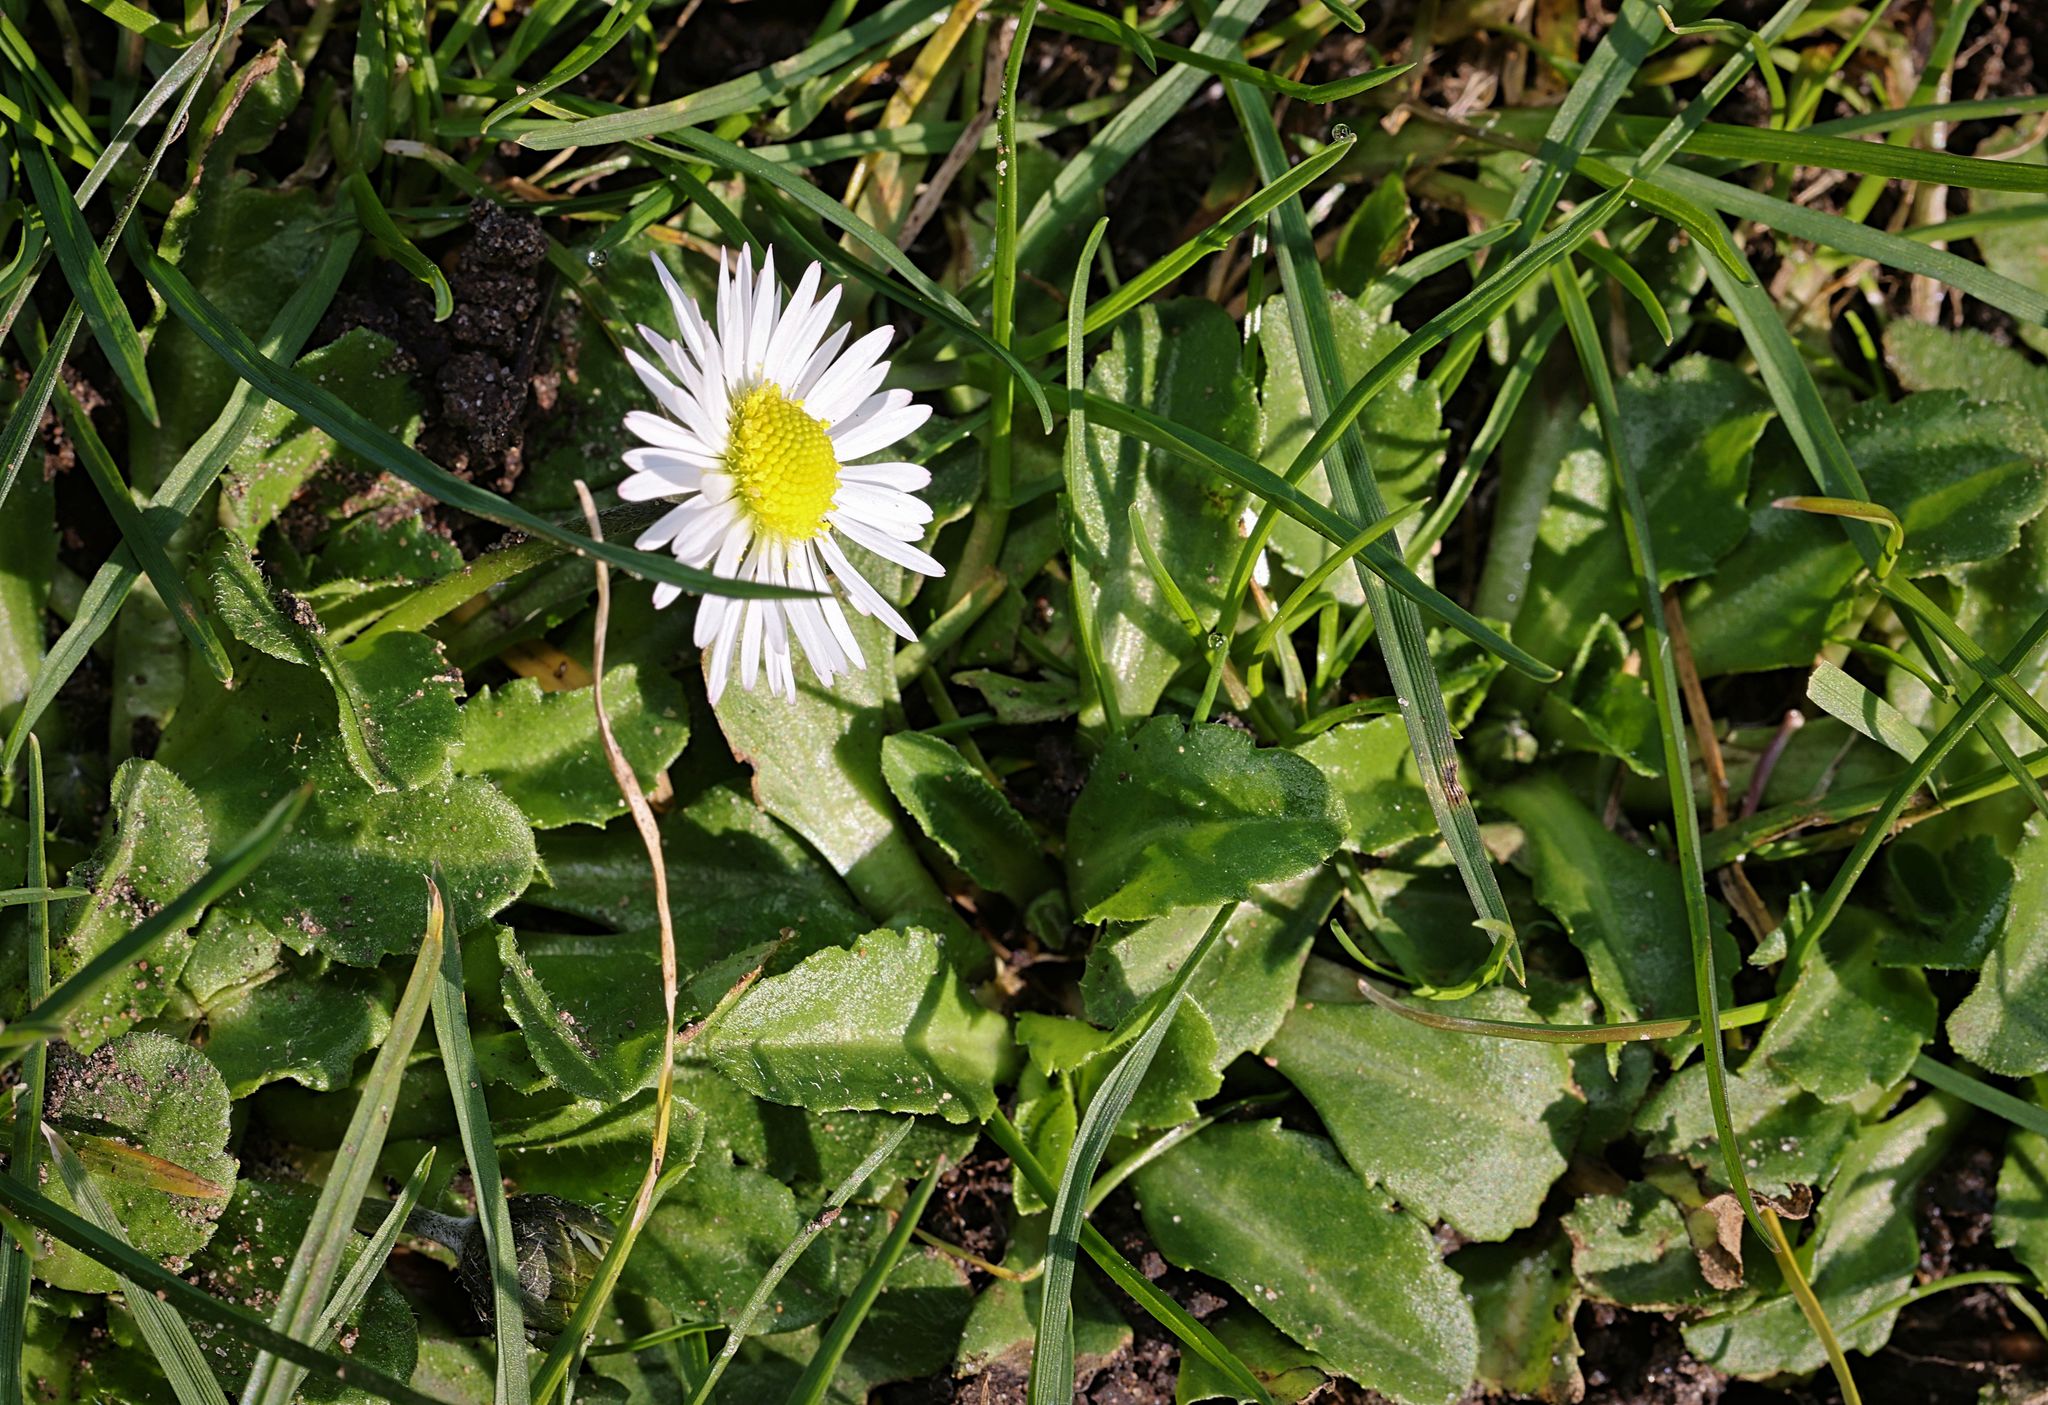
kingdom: Plantae
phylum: Tracheophyta
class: Magnoliopsida
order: Asterales
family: Asteraceae
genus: Bellis
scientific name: Bellis perennis
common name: Lawndaisy
